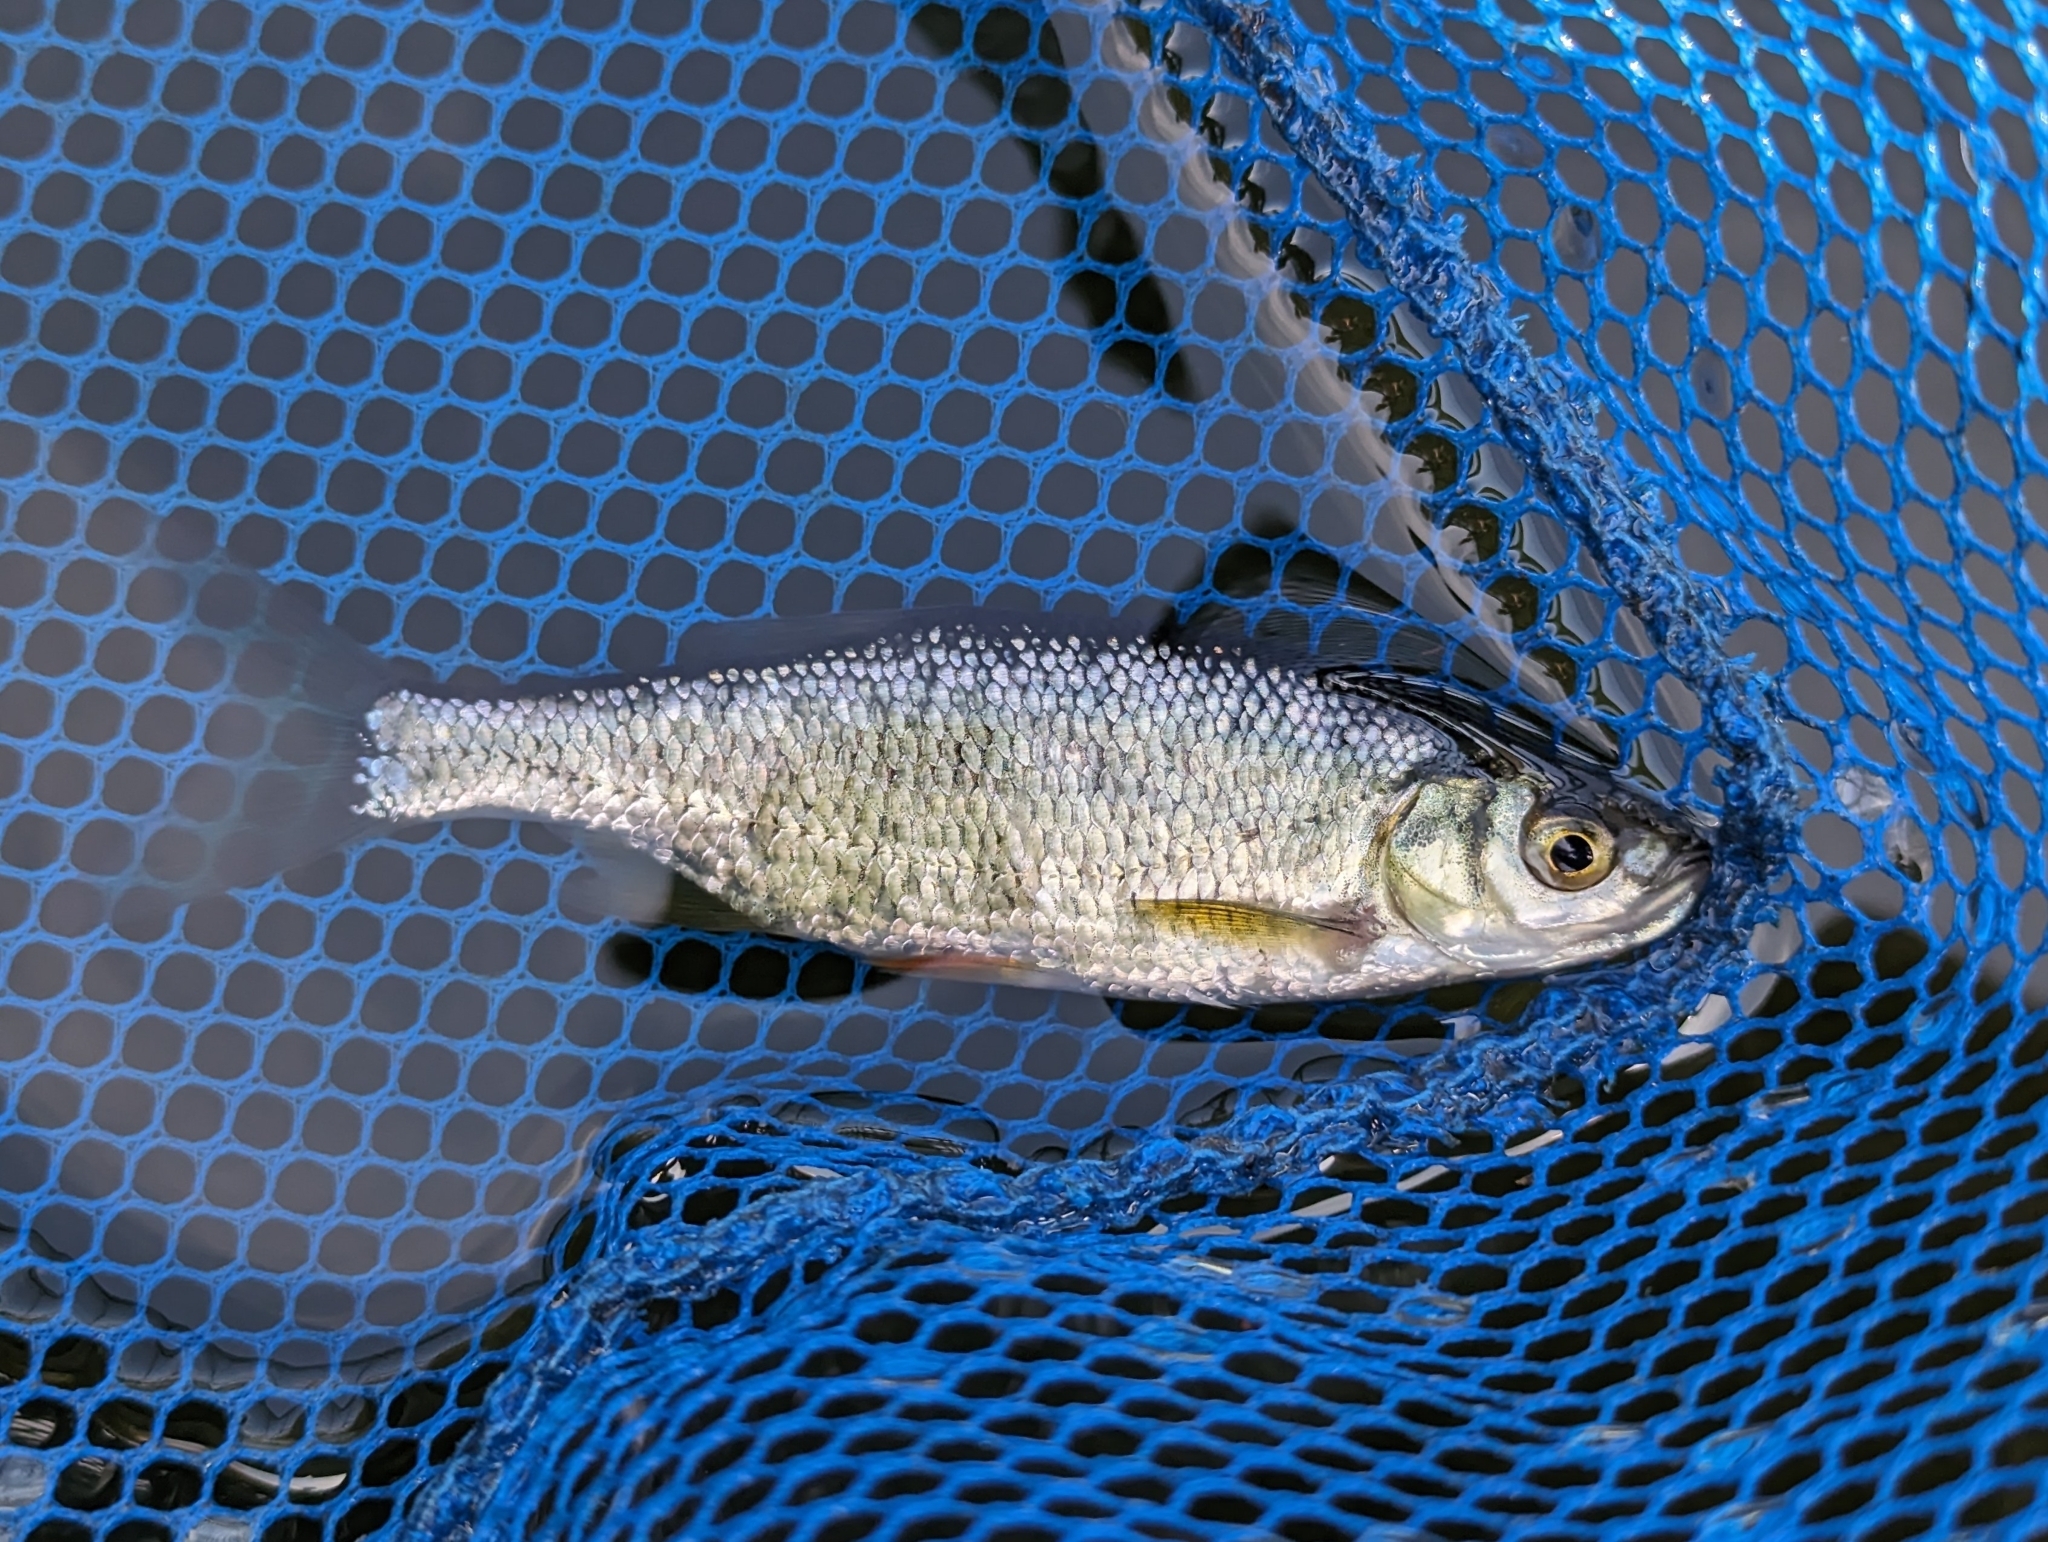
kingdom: Animalia
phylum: Chordata
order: Cypriniformes
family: Cyprinidae
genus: Notemigonus
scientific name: Notemigonus crysoleucas
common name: Golden shiner
